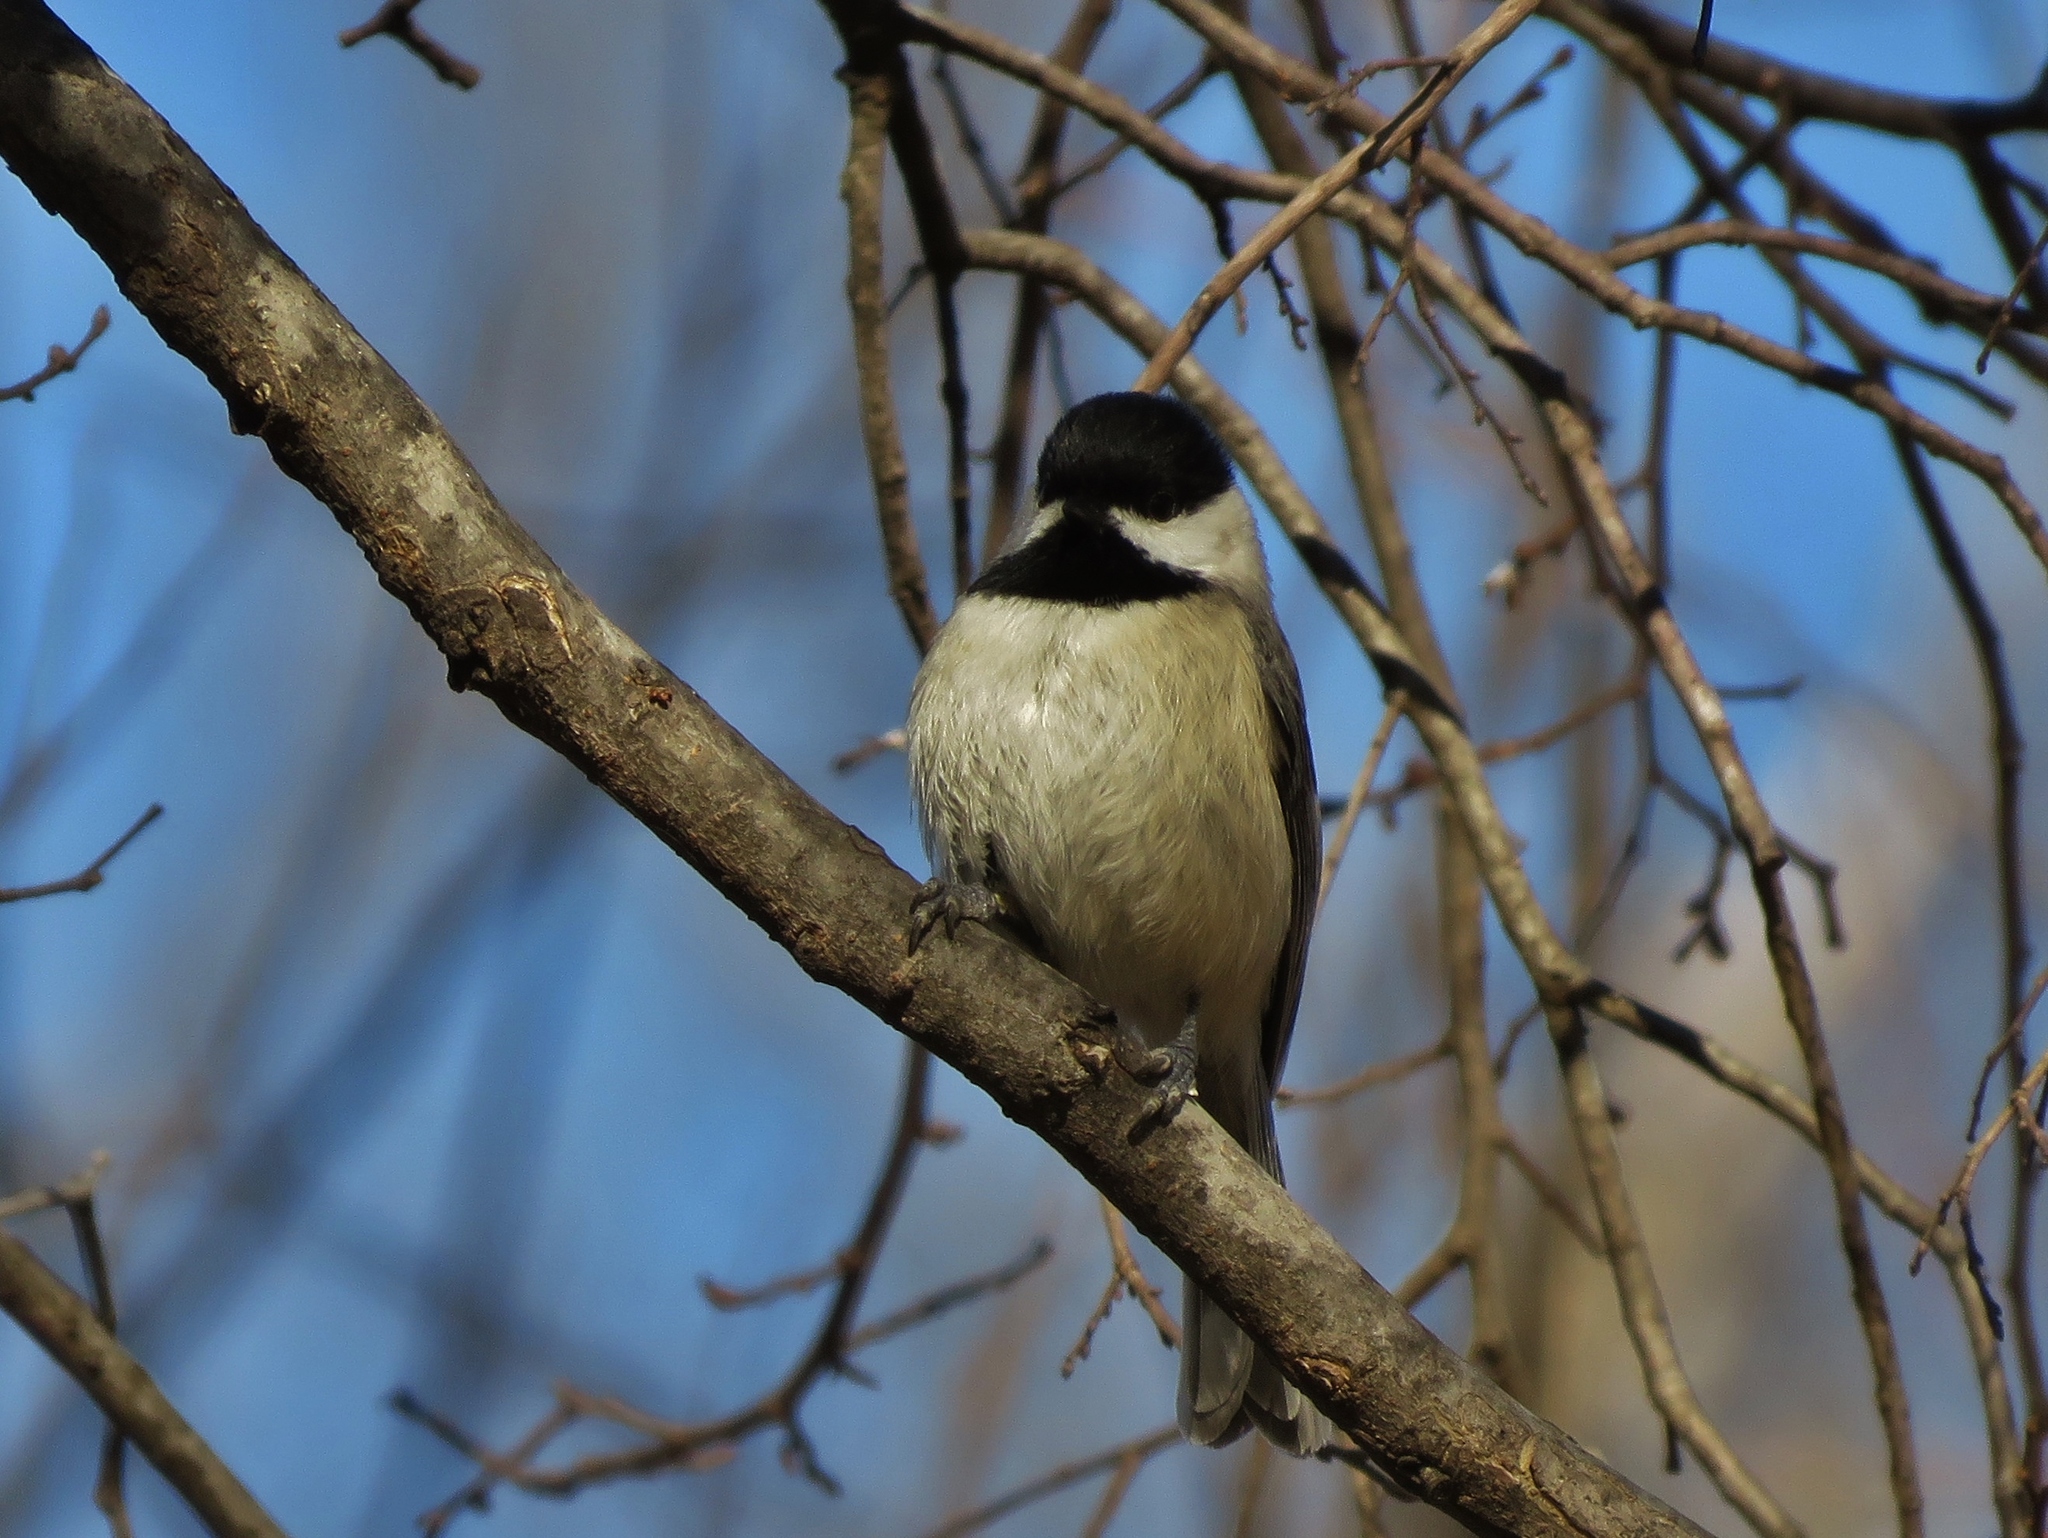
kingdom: Animalia
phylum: Chordata
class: Aves
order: Passeriformes
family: Paridae
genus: Poecile
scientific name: Poecile carolinensis
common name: Carolina chickadee
